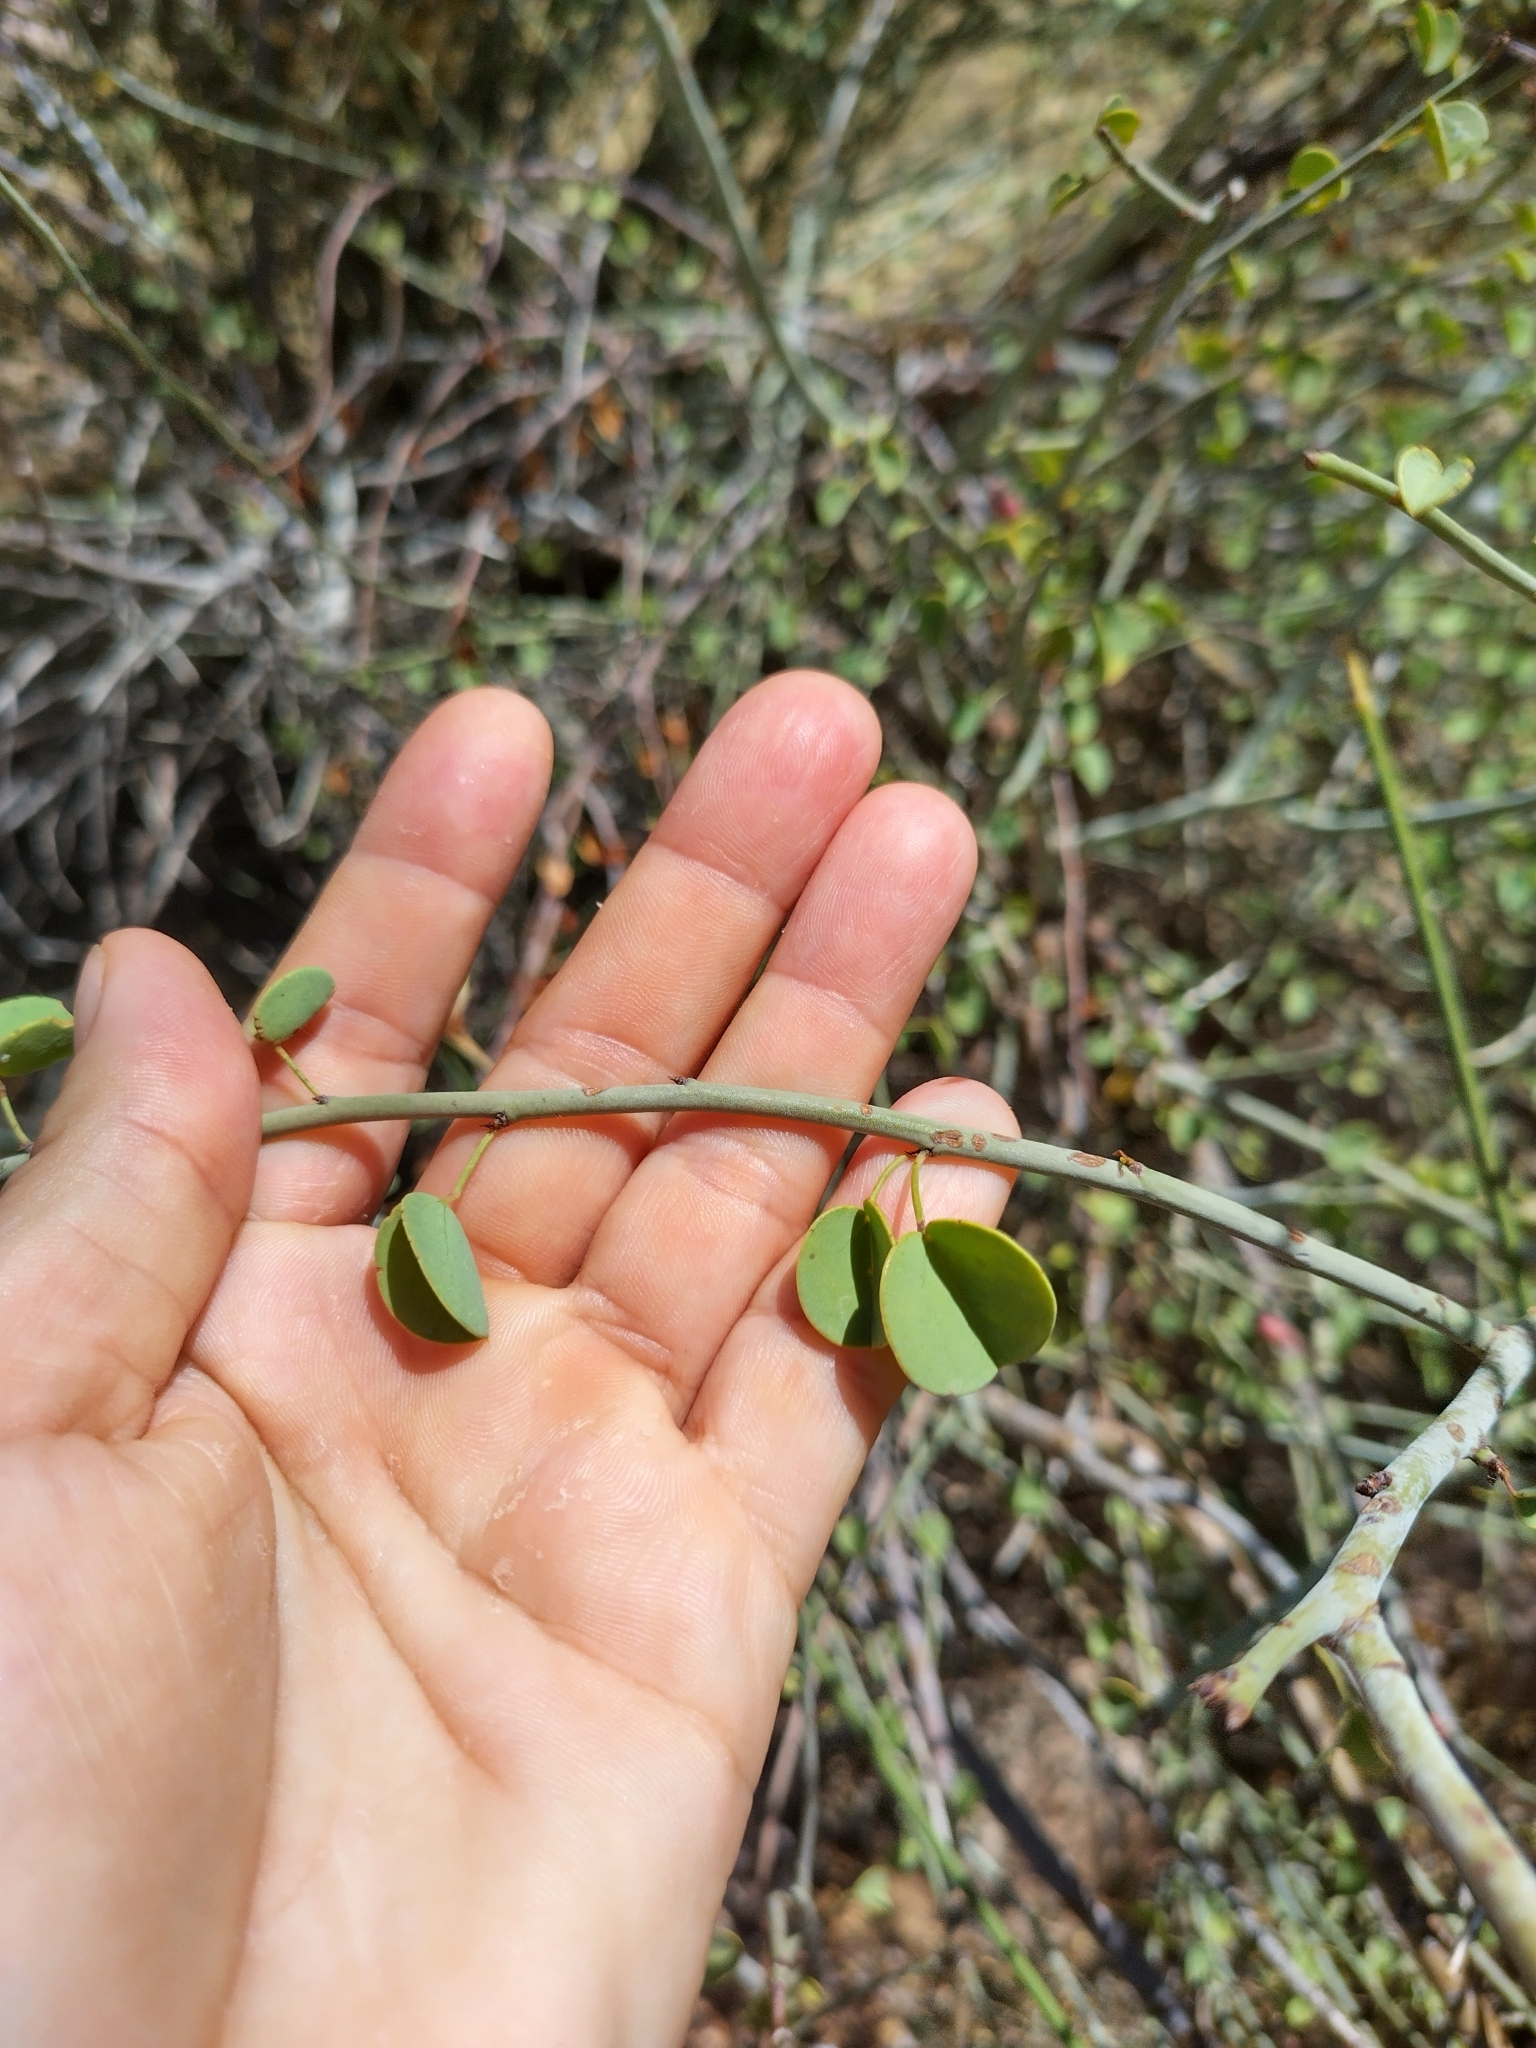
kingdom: Plantae
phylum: Tracheophyta
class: Magnoliopsida
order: Fabales
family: Fabaceae
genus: Adenolobus
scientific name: Adenolobus garipensis
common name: Butterfly-leaf
